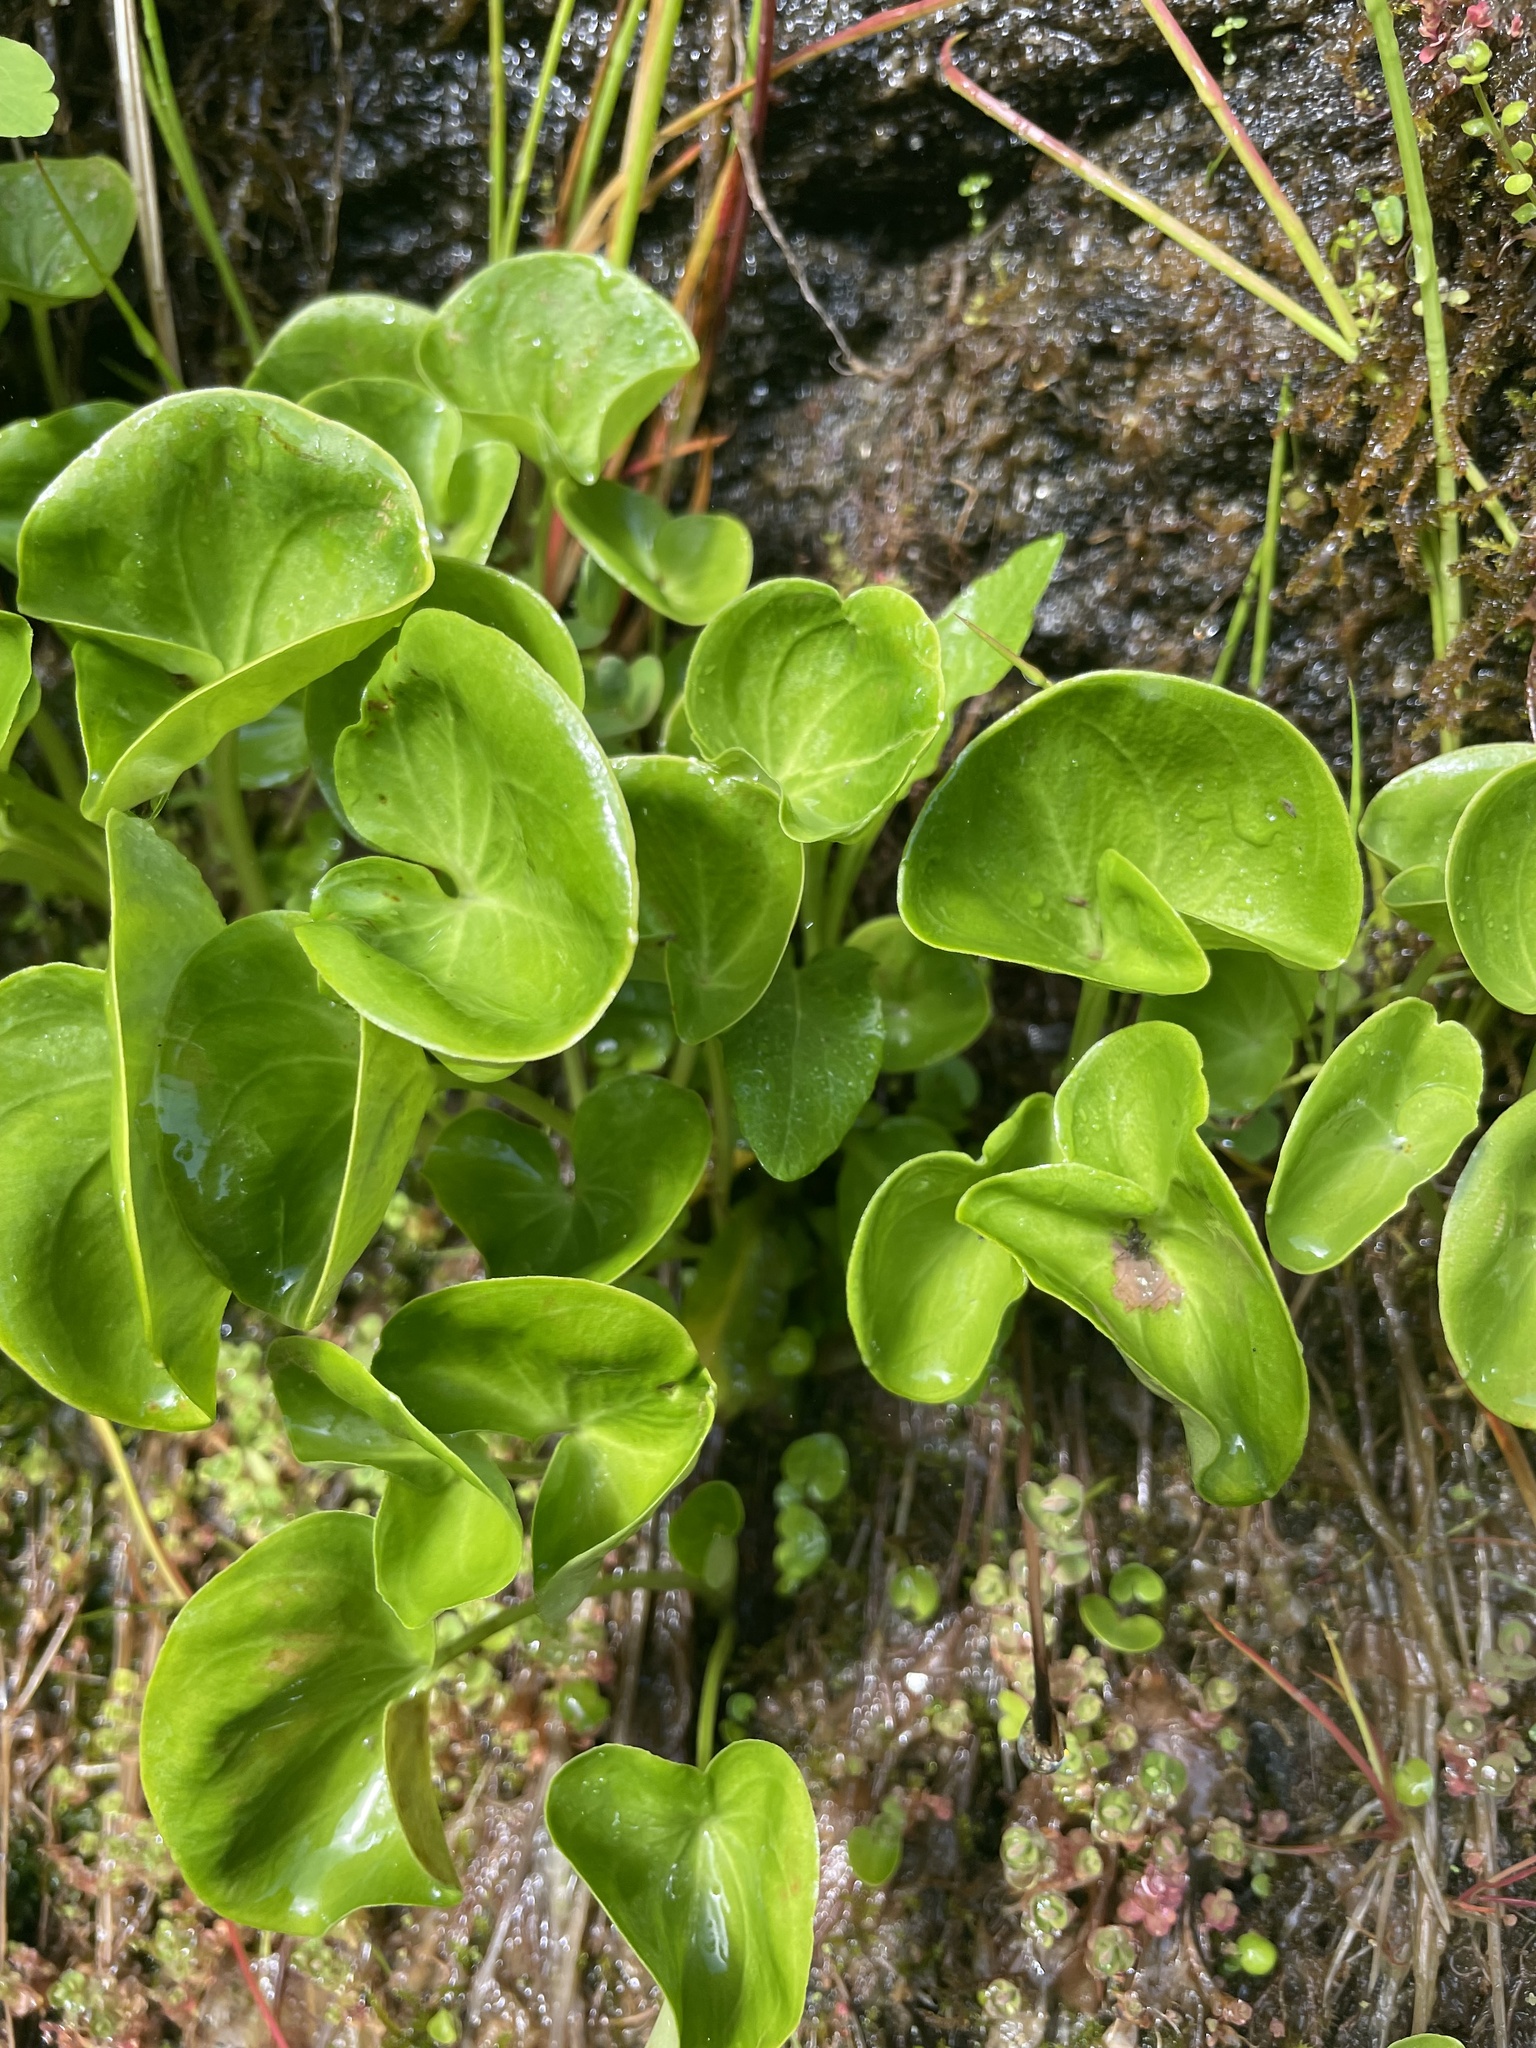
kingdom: Plantae
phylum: Tracheophyta
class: Magnoliopsida
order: Celastrales
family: Parnassiaceae
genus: Parnassia
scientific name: Parnassia asarifolia
